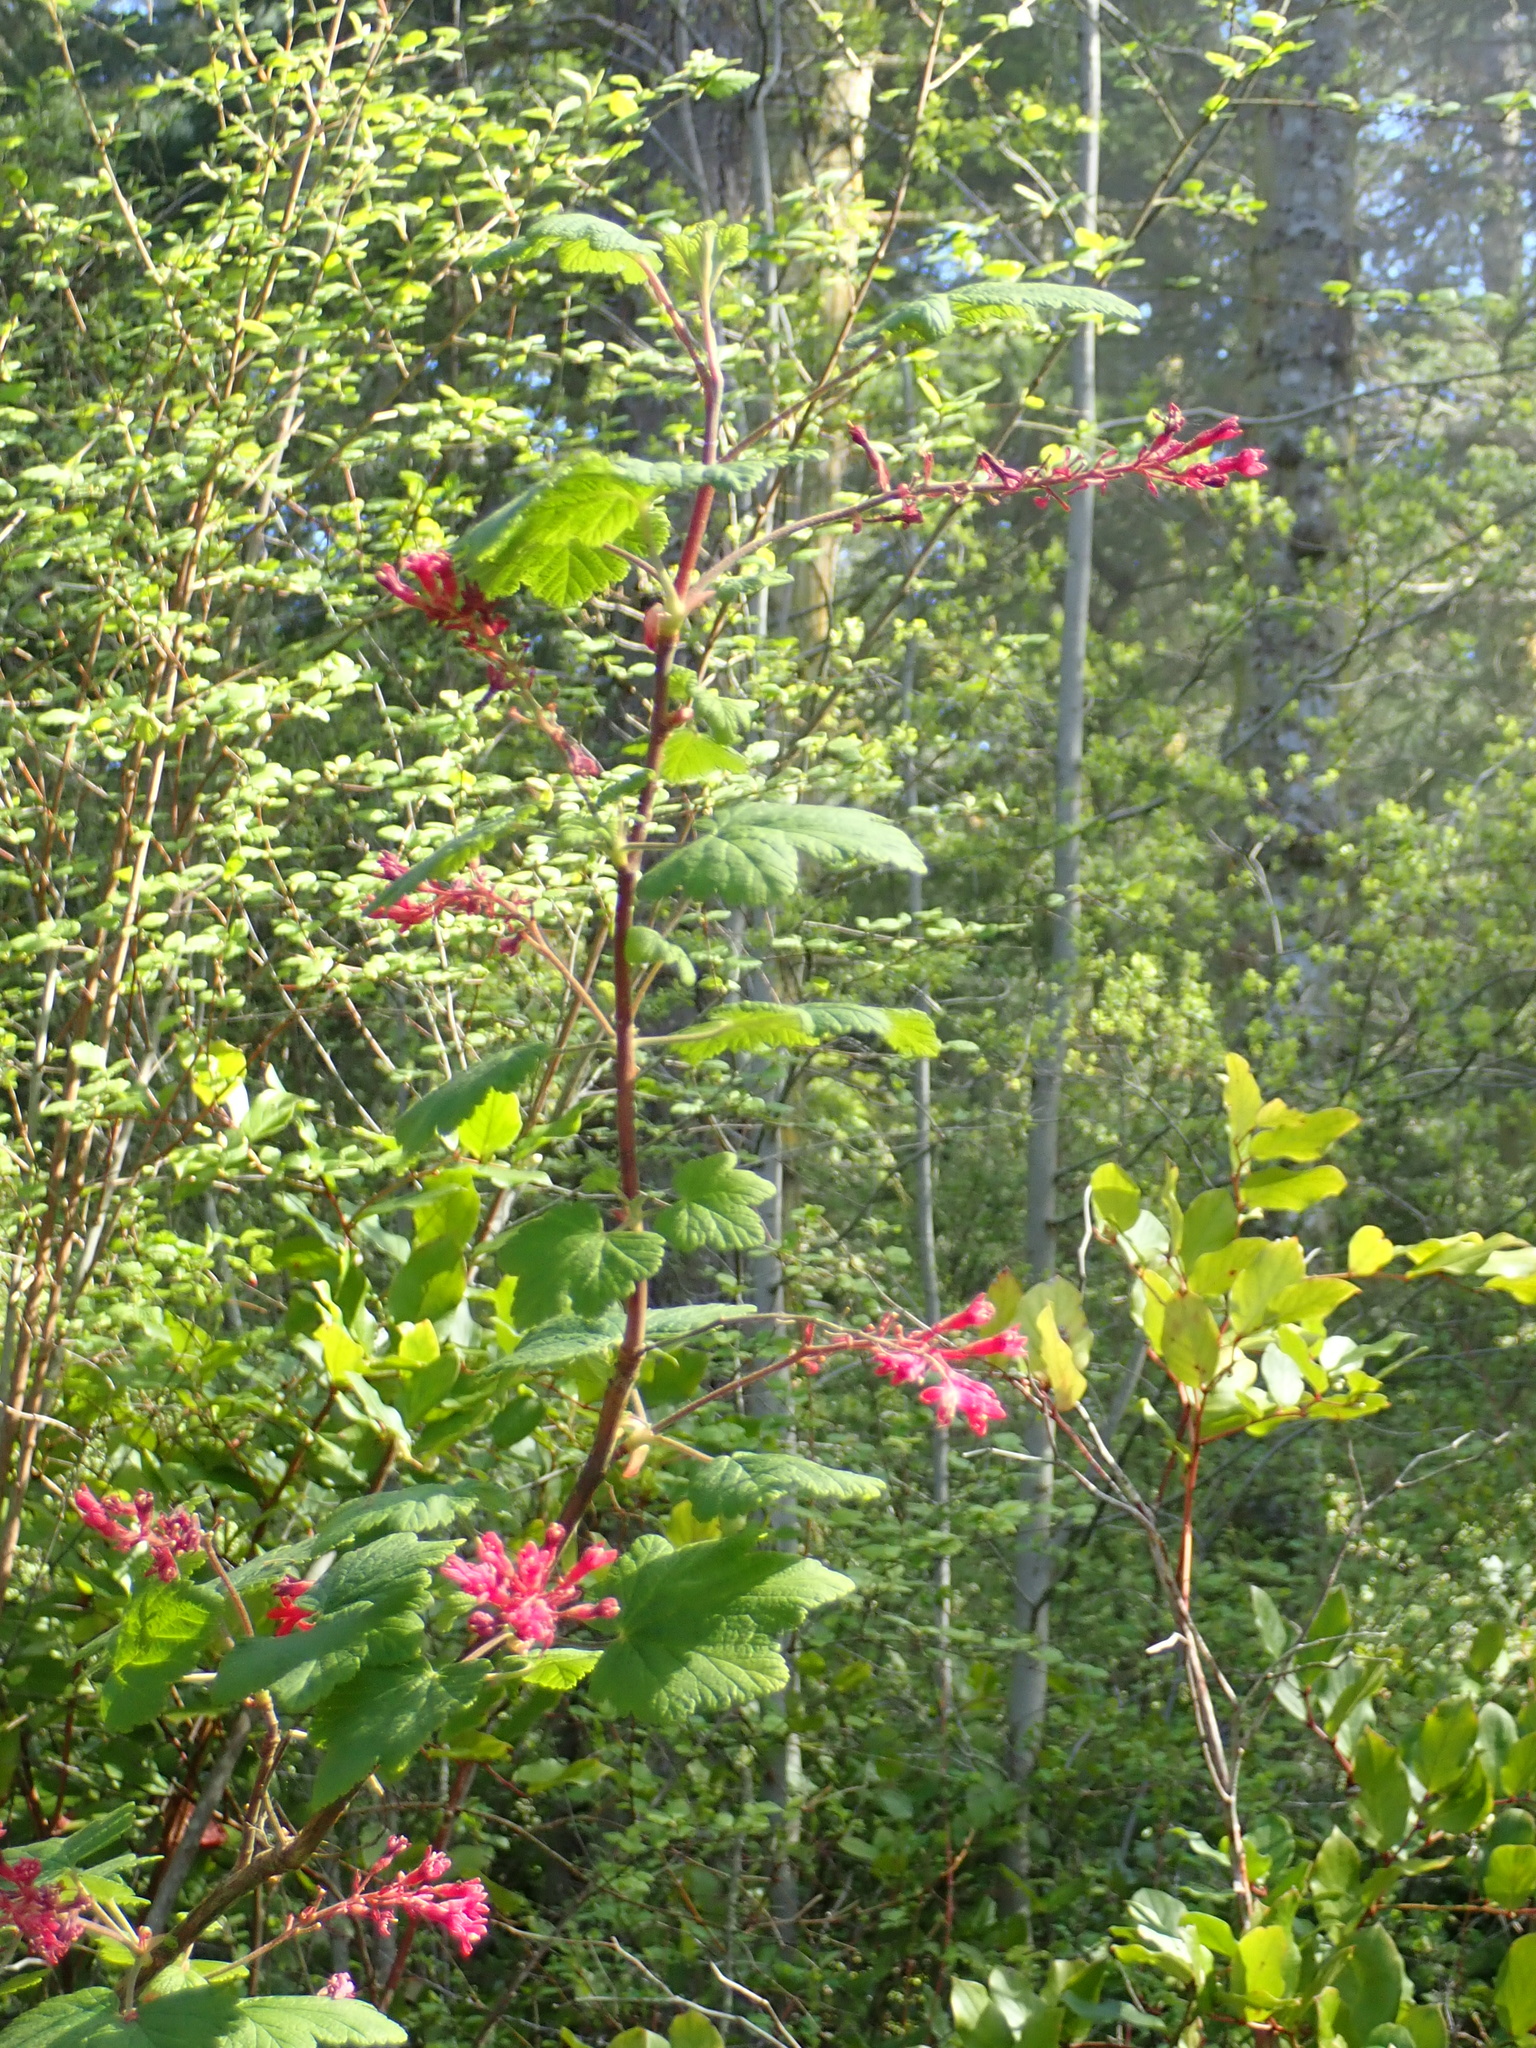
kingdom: Plantae
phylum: Tracheophyta
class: Magnoliopsida
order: Saxifragales
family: Grossulariaceae
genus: Ribes
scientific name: Ribes sanguineum
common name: Flowering currant
